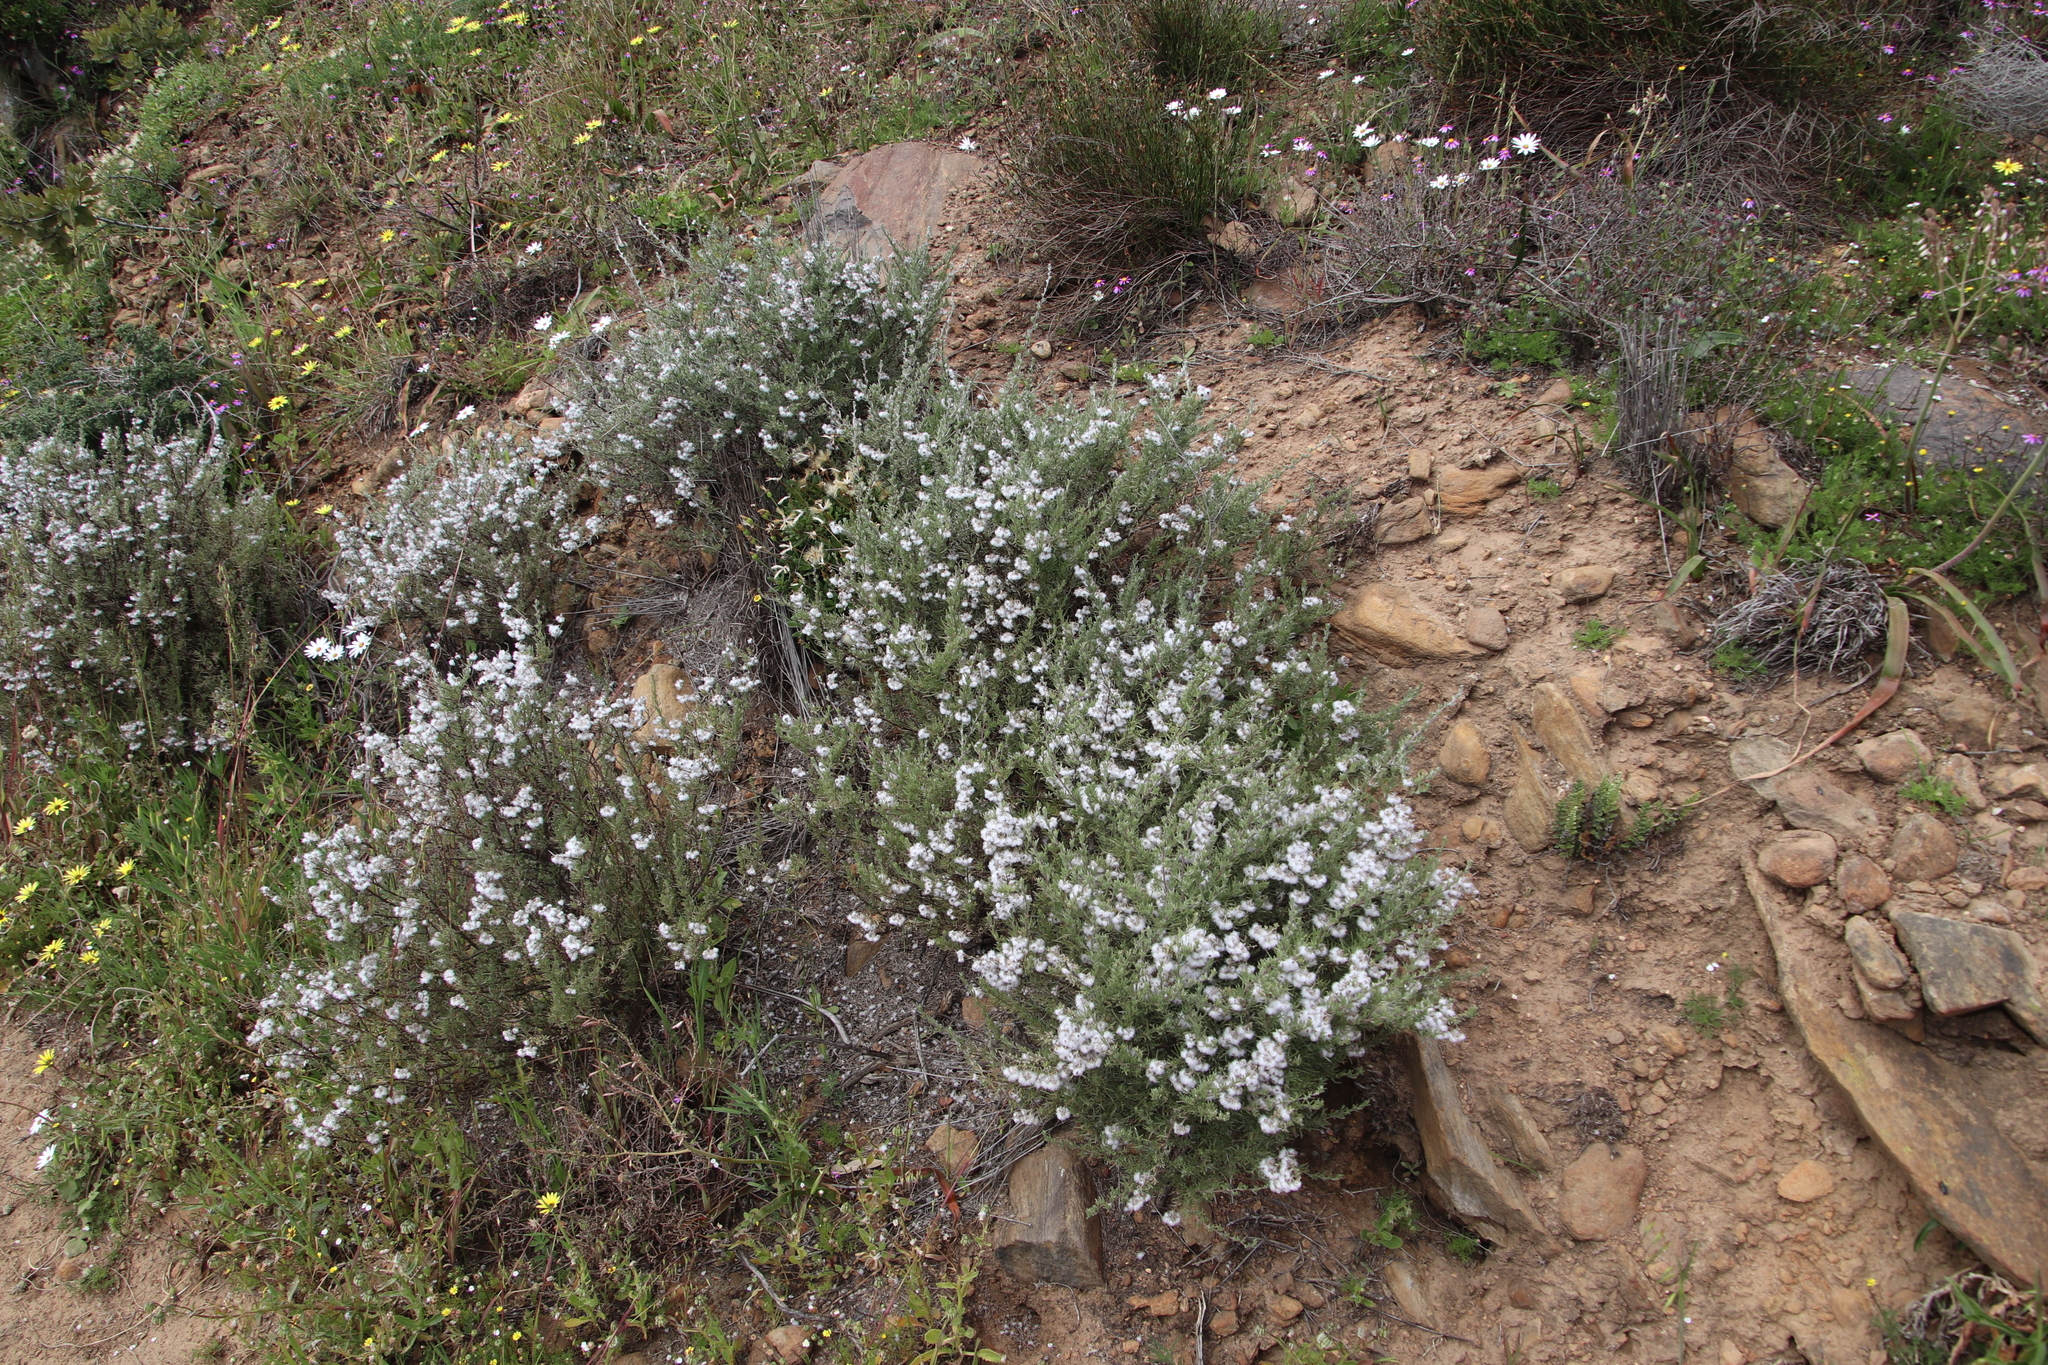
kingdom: Plantae
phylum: Tracheophyta
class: Magnoliopsida
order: Asterales
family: Asteraceae
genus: Eriocephalus
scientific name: Eriocephalus africanus
